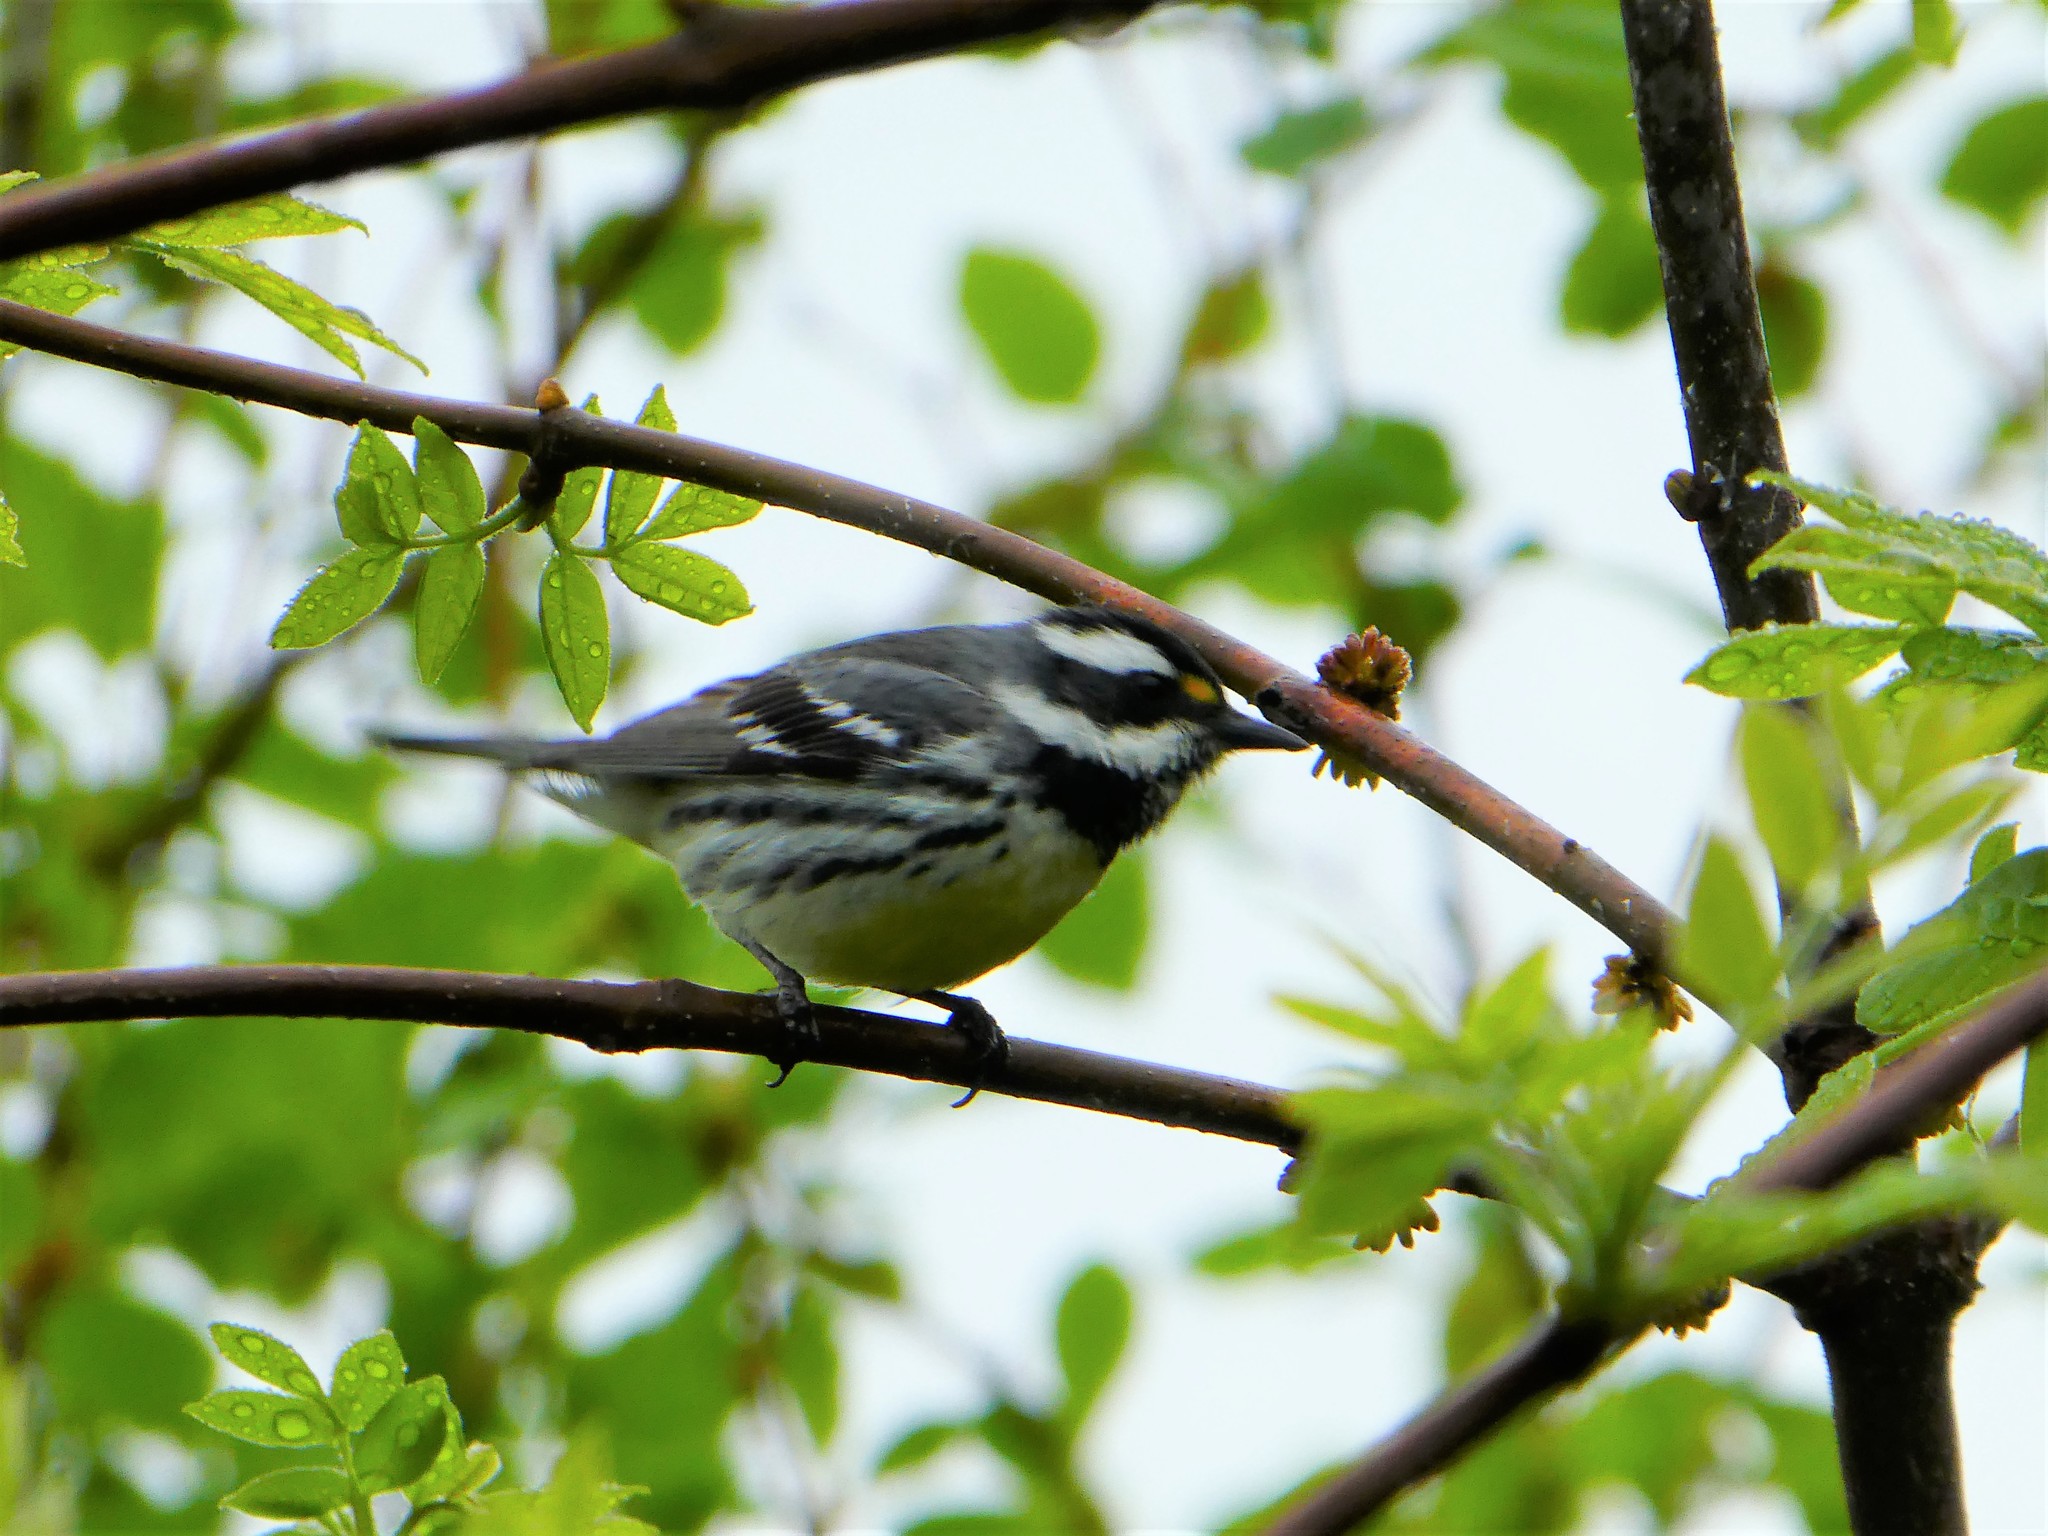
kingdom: Animalia
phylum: Chordata
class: Aves
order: Passeriformes
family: Parulidae
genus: Setophaga
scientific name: Setophaga nigrescens
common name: Black-throated gray warbler
